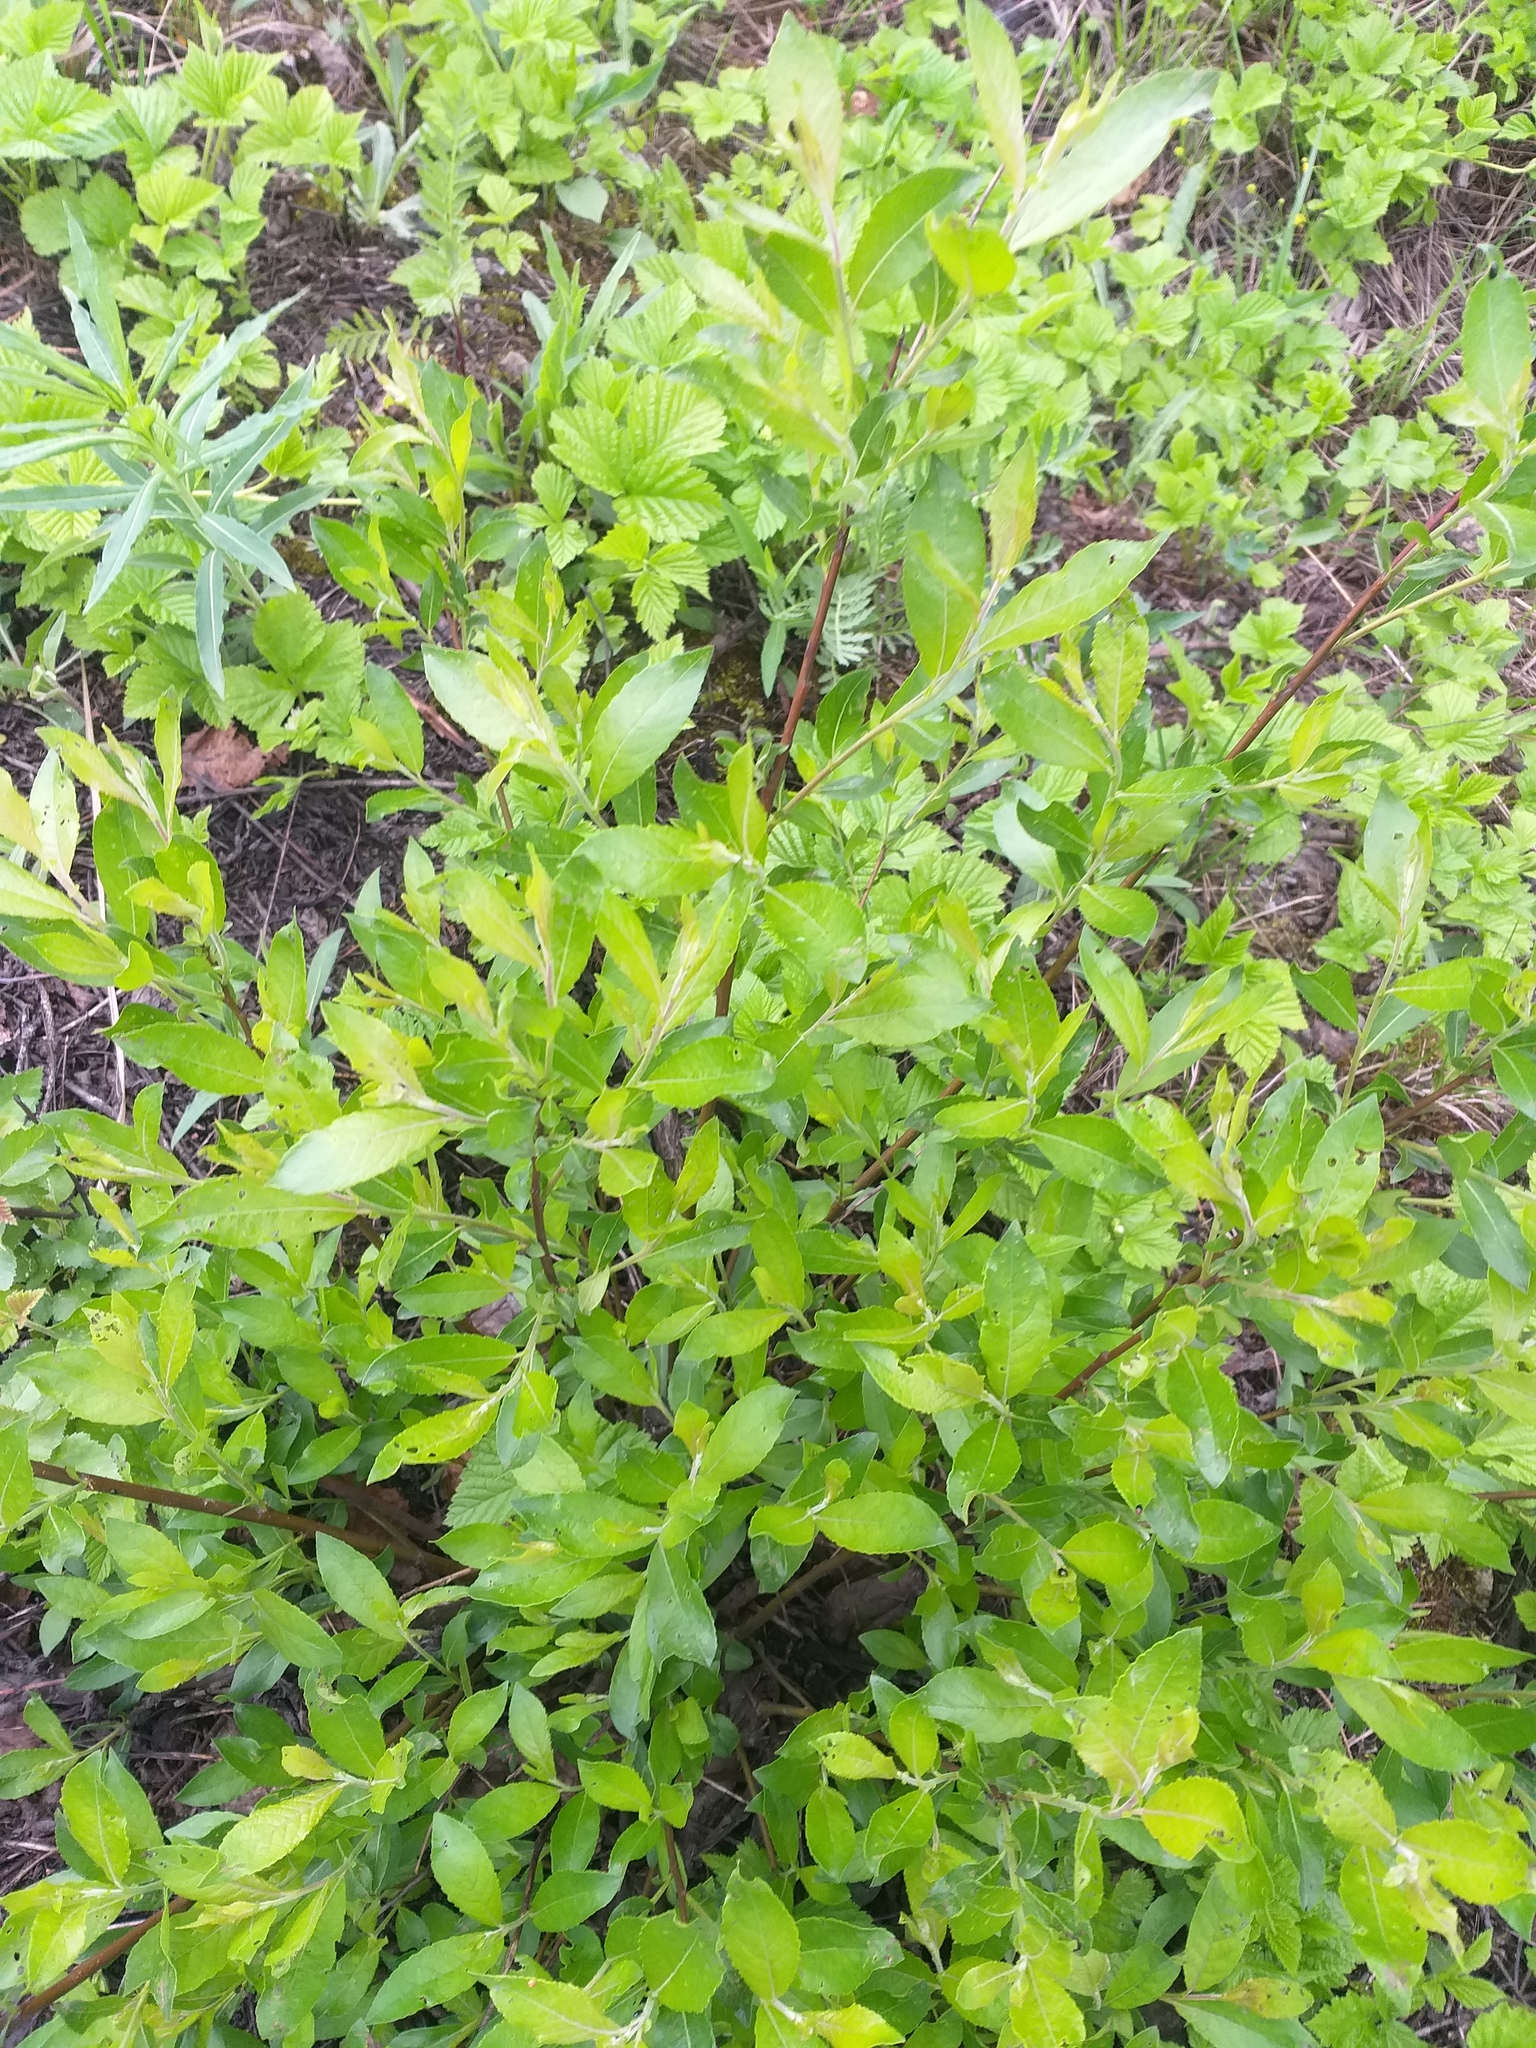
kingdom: Plantae
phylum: Tracheophyta
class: Magnoliopsida
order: Malpighiales
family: Salicaceae
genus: Salix
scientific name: Salix myrsinifolia
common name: Dark-leaved willow
